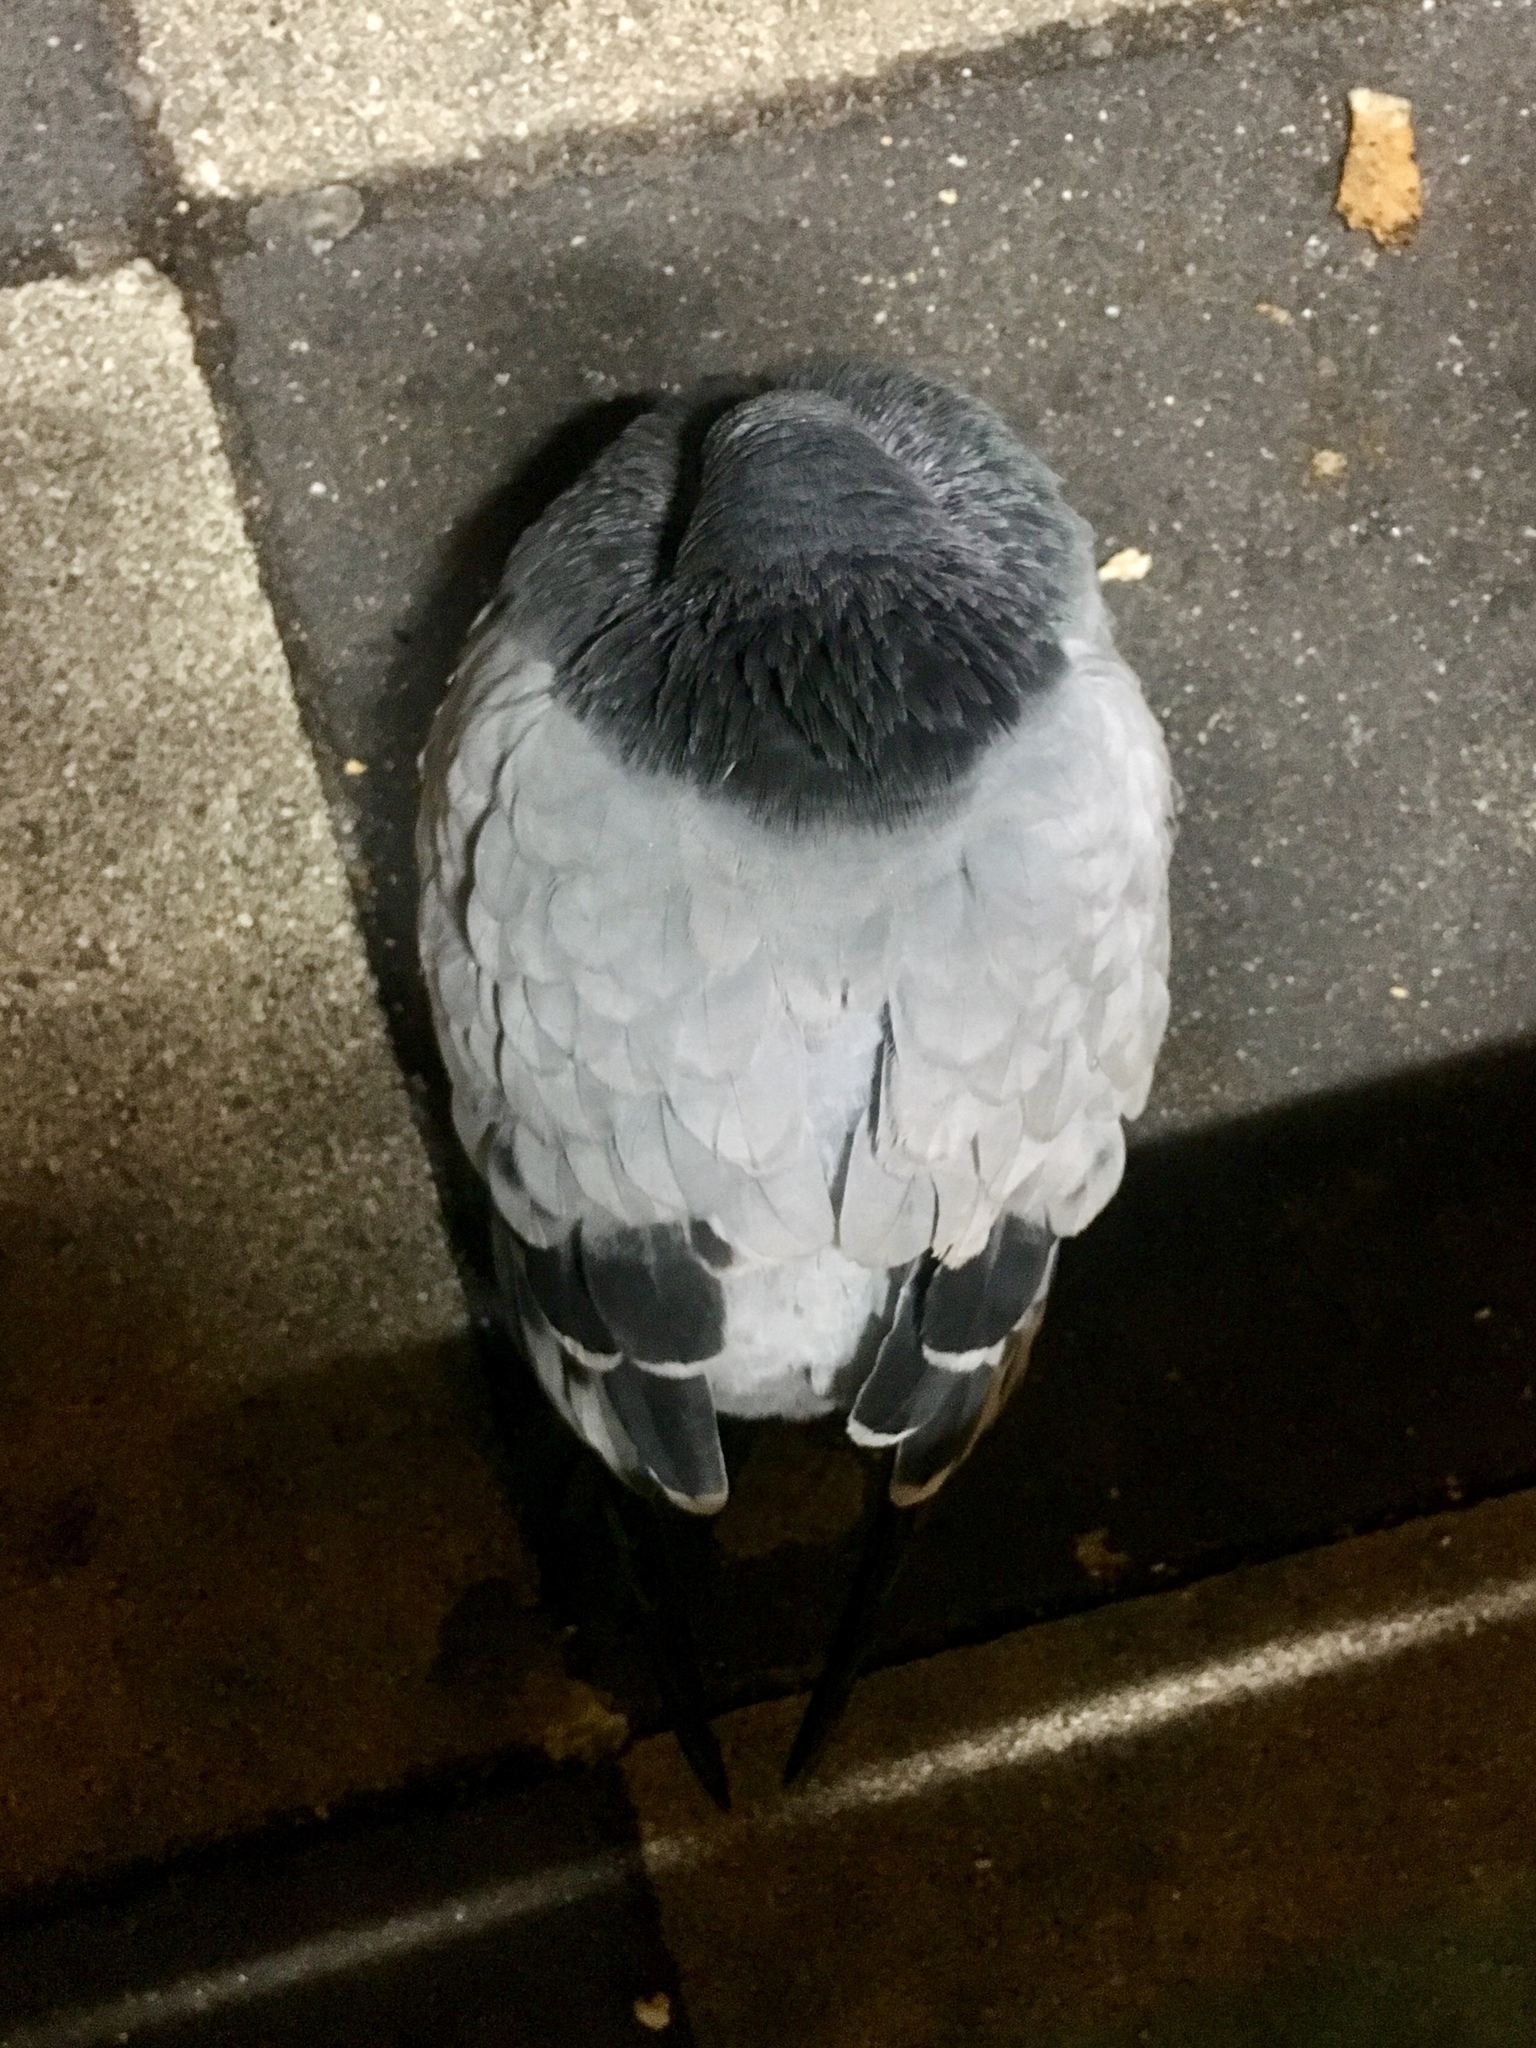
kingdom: Animalia
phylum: Chordata
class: Aves
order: Columbiformes
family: Columbidae
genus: Columba
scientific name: Columba livia
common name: Rock pigeon
